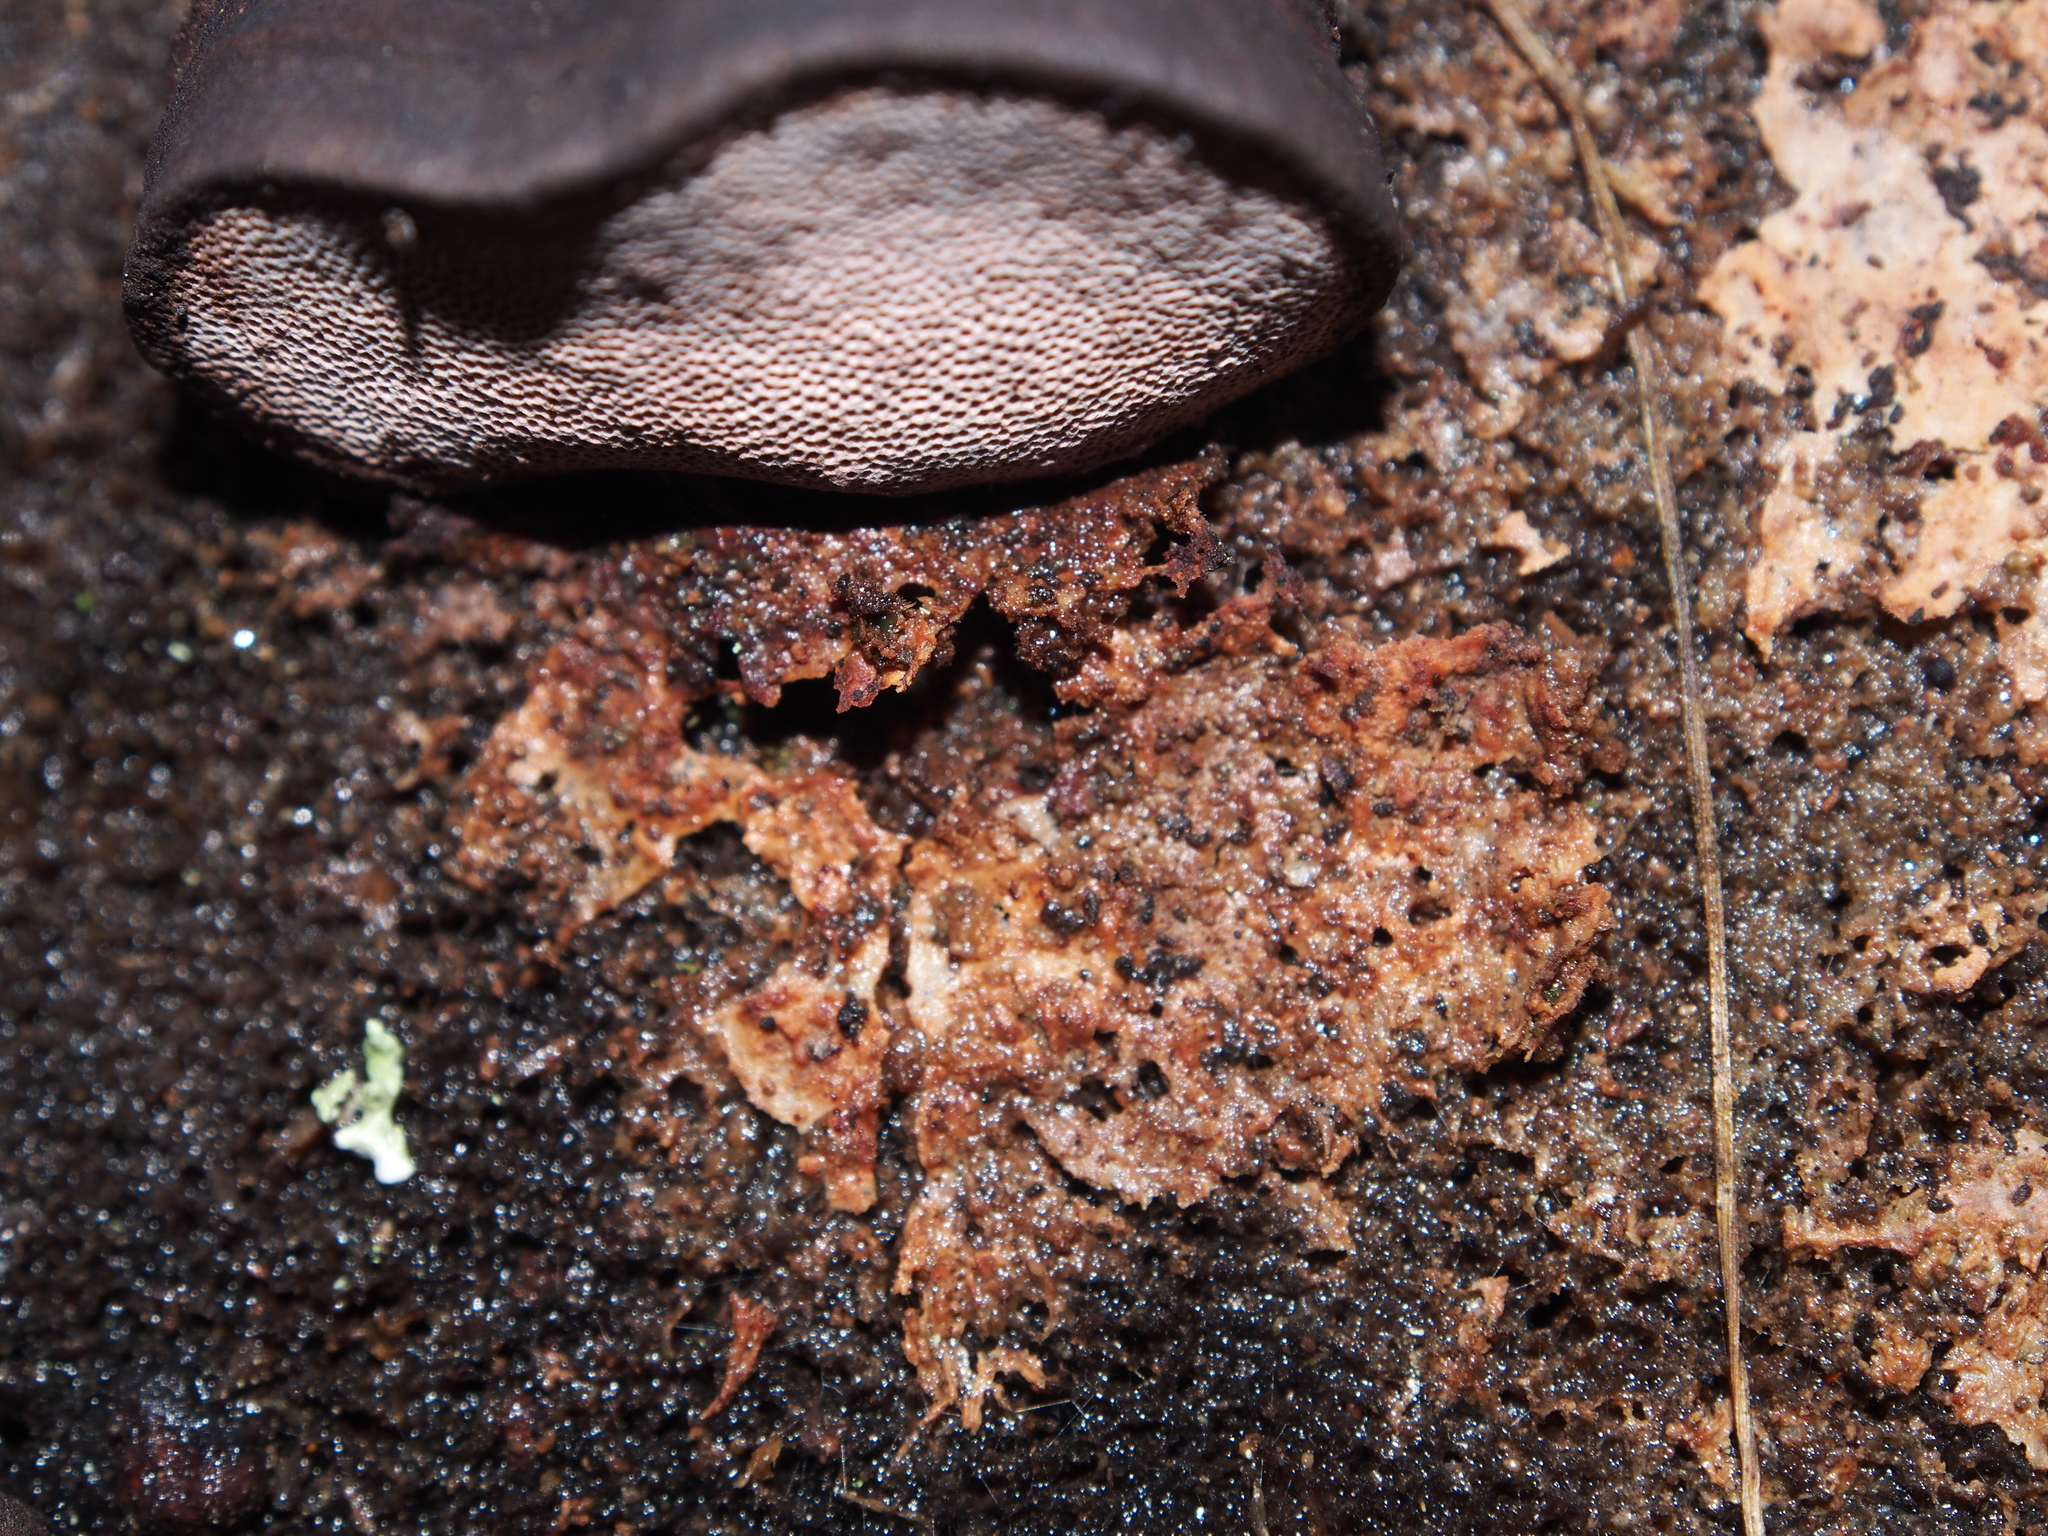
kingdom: Fungi
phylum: Basidiomycota
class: Agaricomycetes
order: Polyporales
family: Fomitopsidaceae
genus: Rhodofomes
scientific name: Rhodofomes roseus
